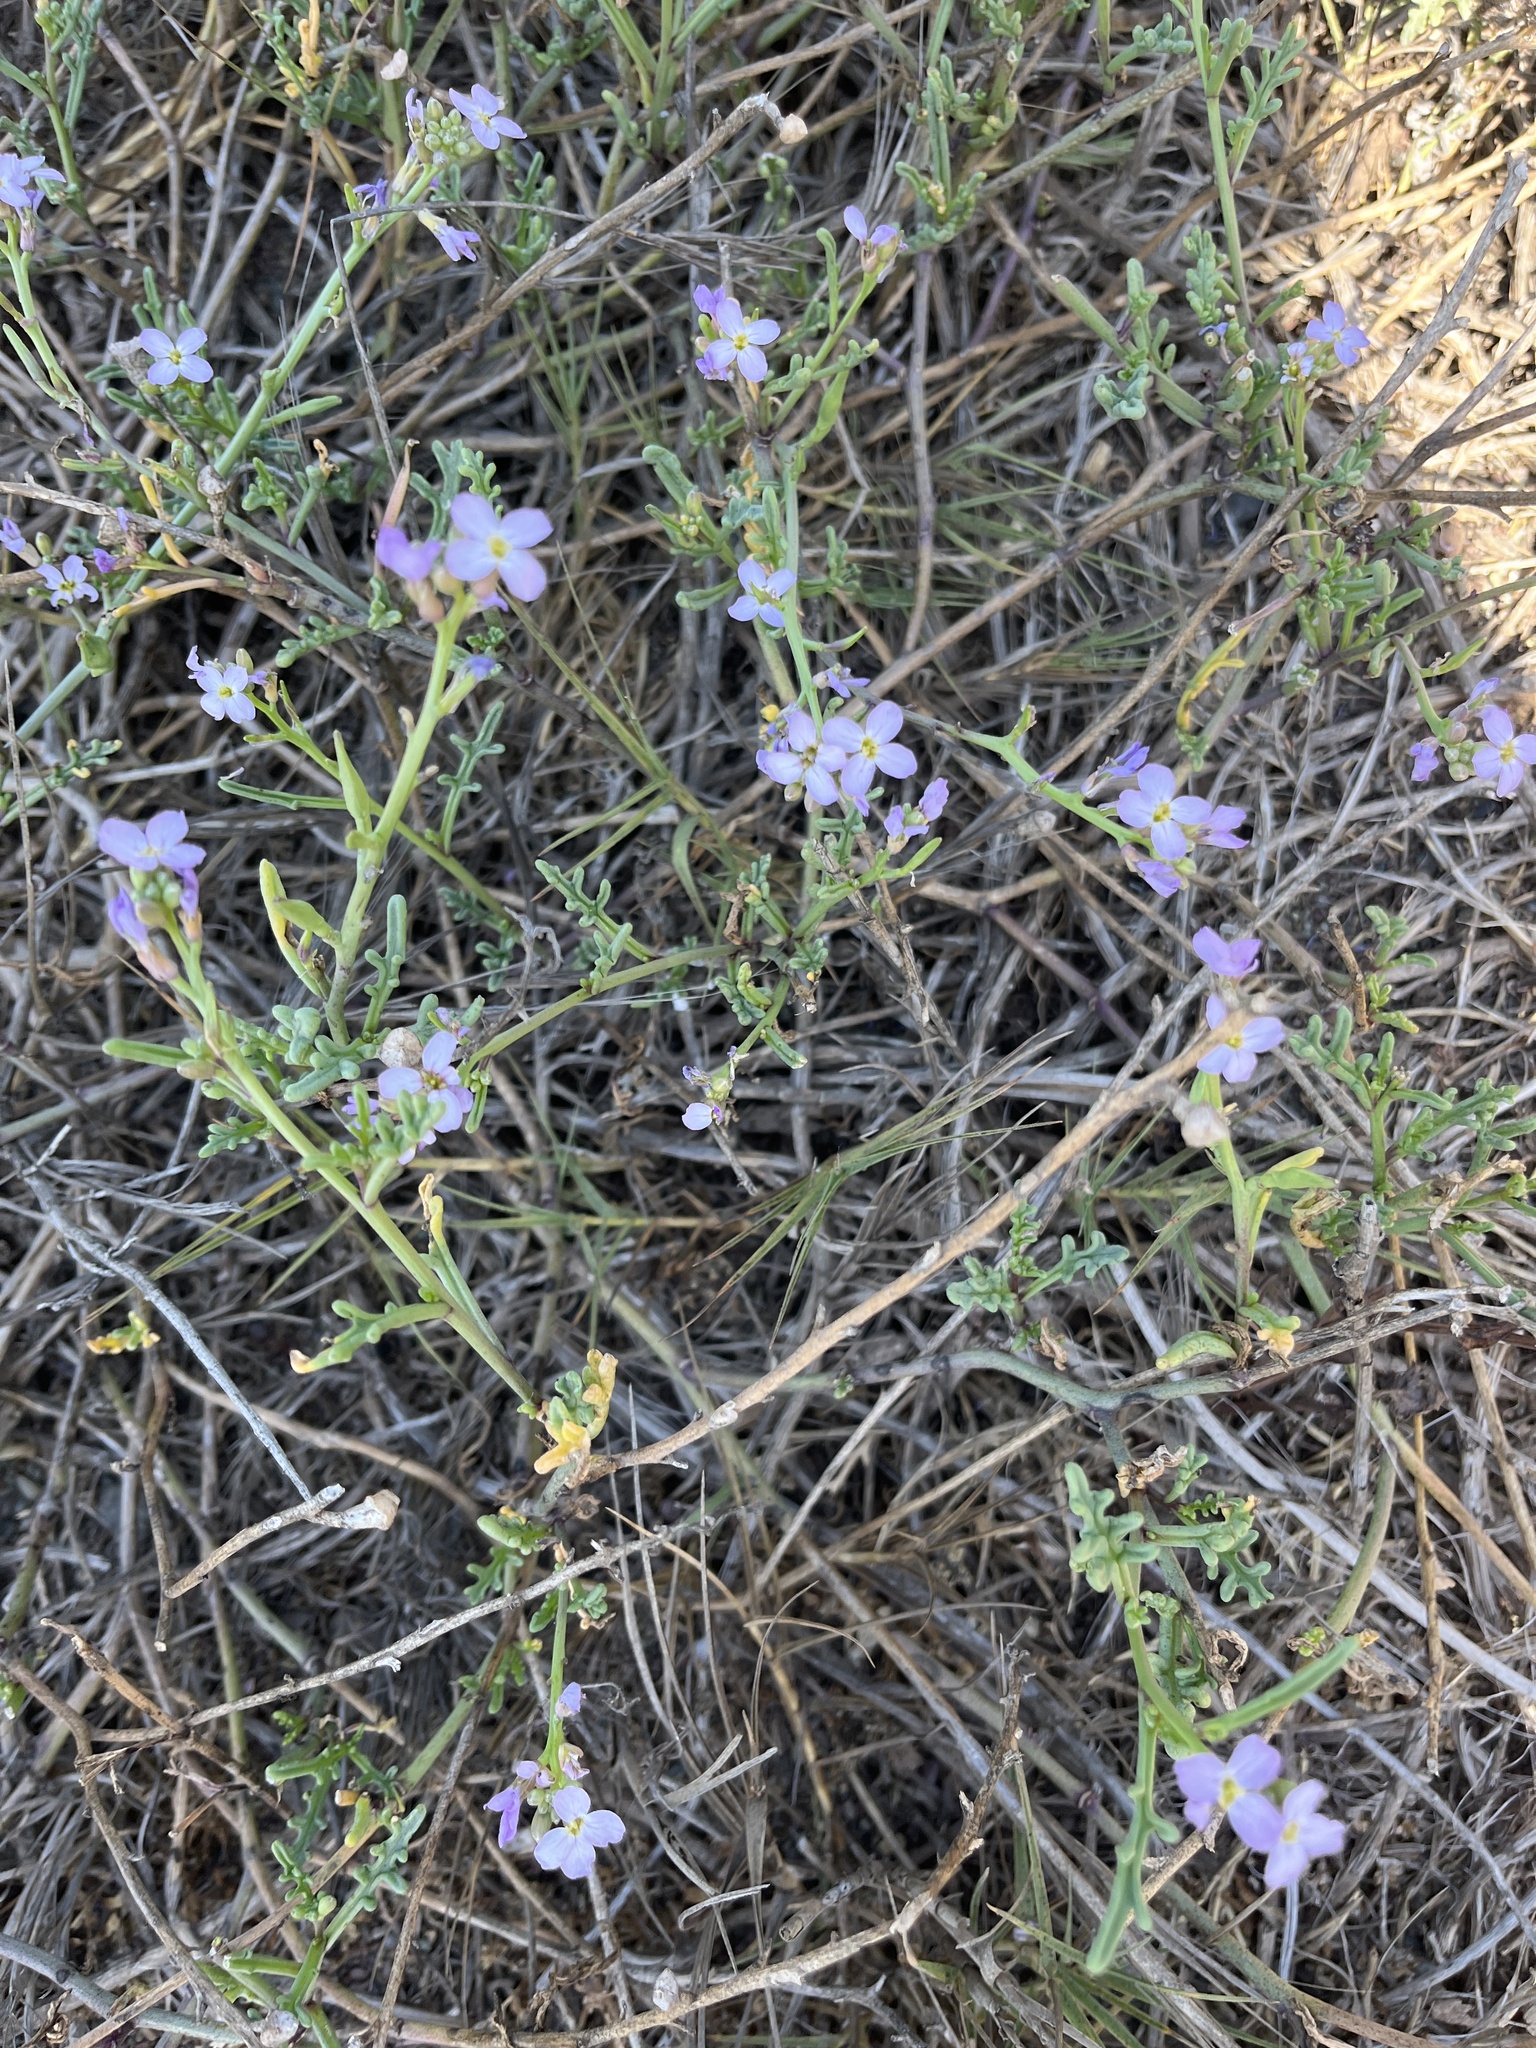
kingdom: Plantae
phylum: Tracheophyta
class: Magnoliopsida
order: Brassicales
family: Brassicaceae
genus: Cakile
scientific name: Cakile maritima
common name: Sea rocket
